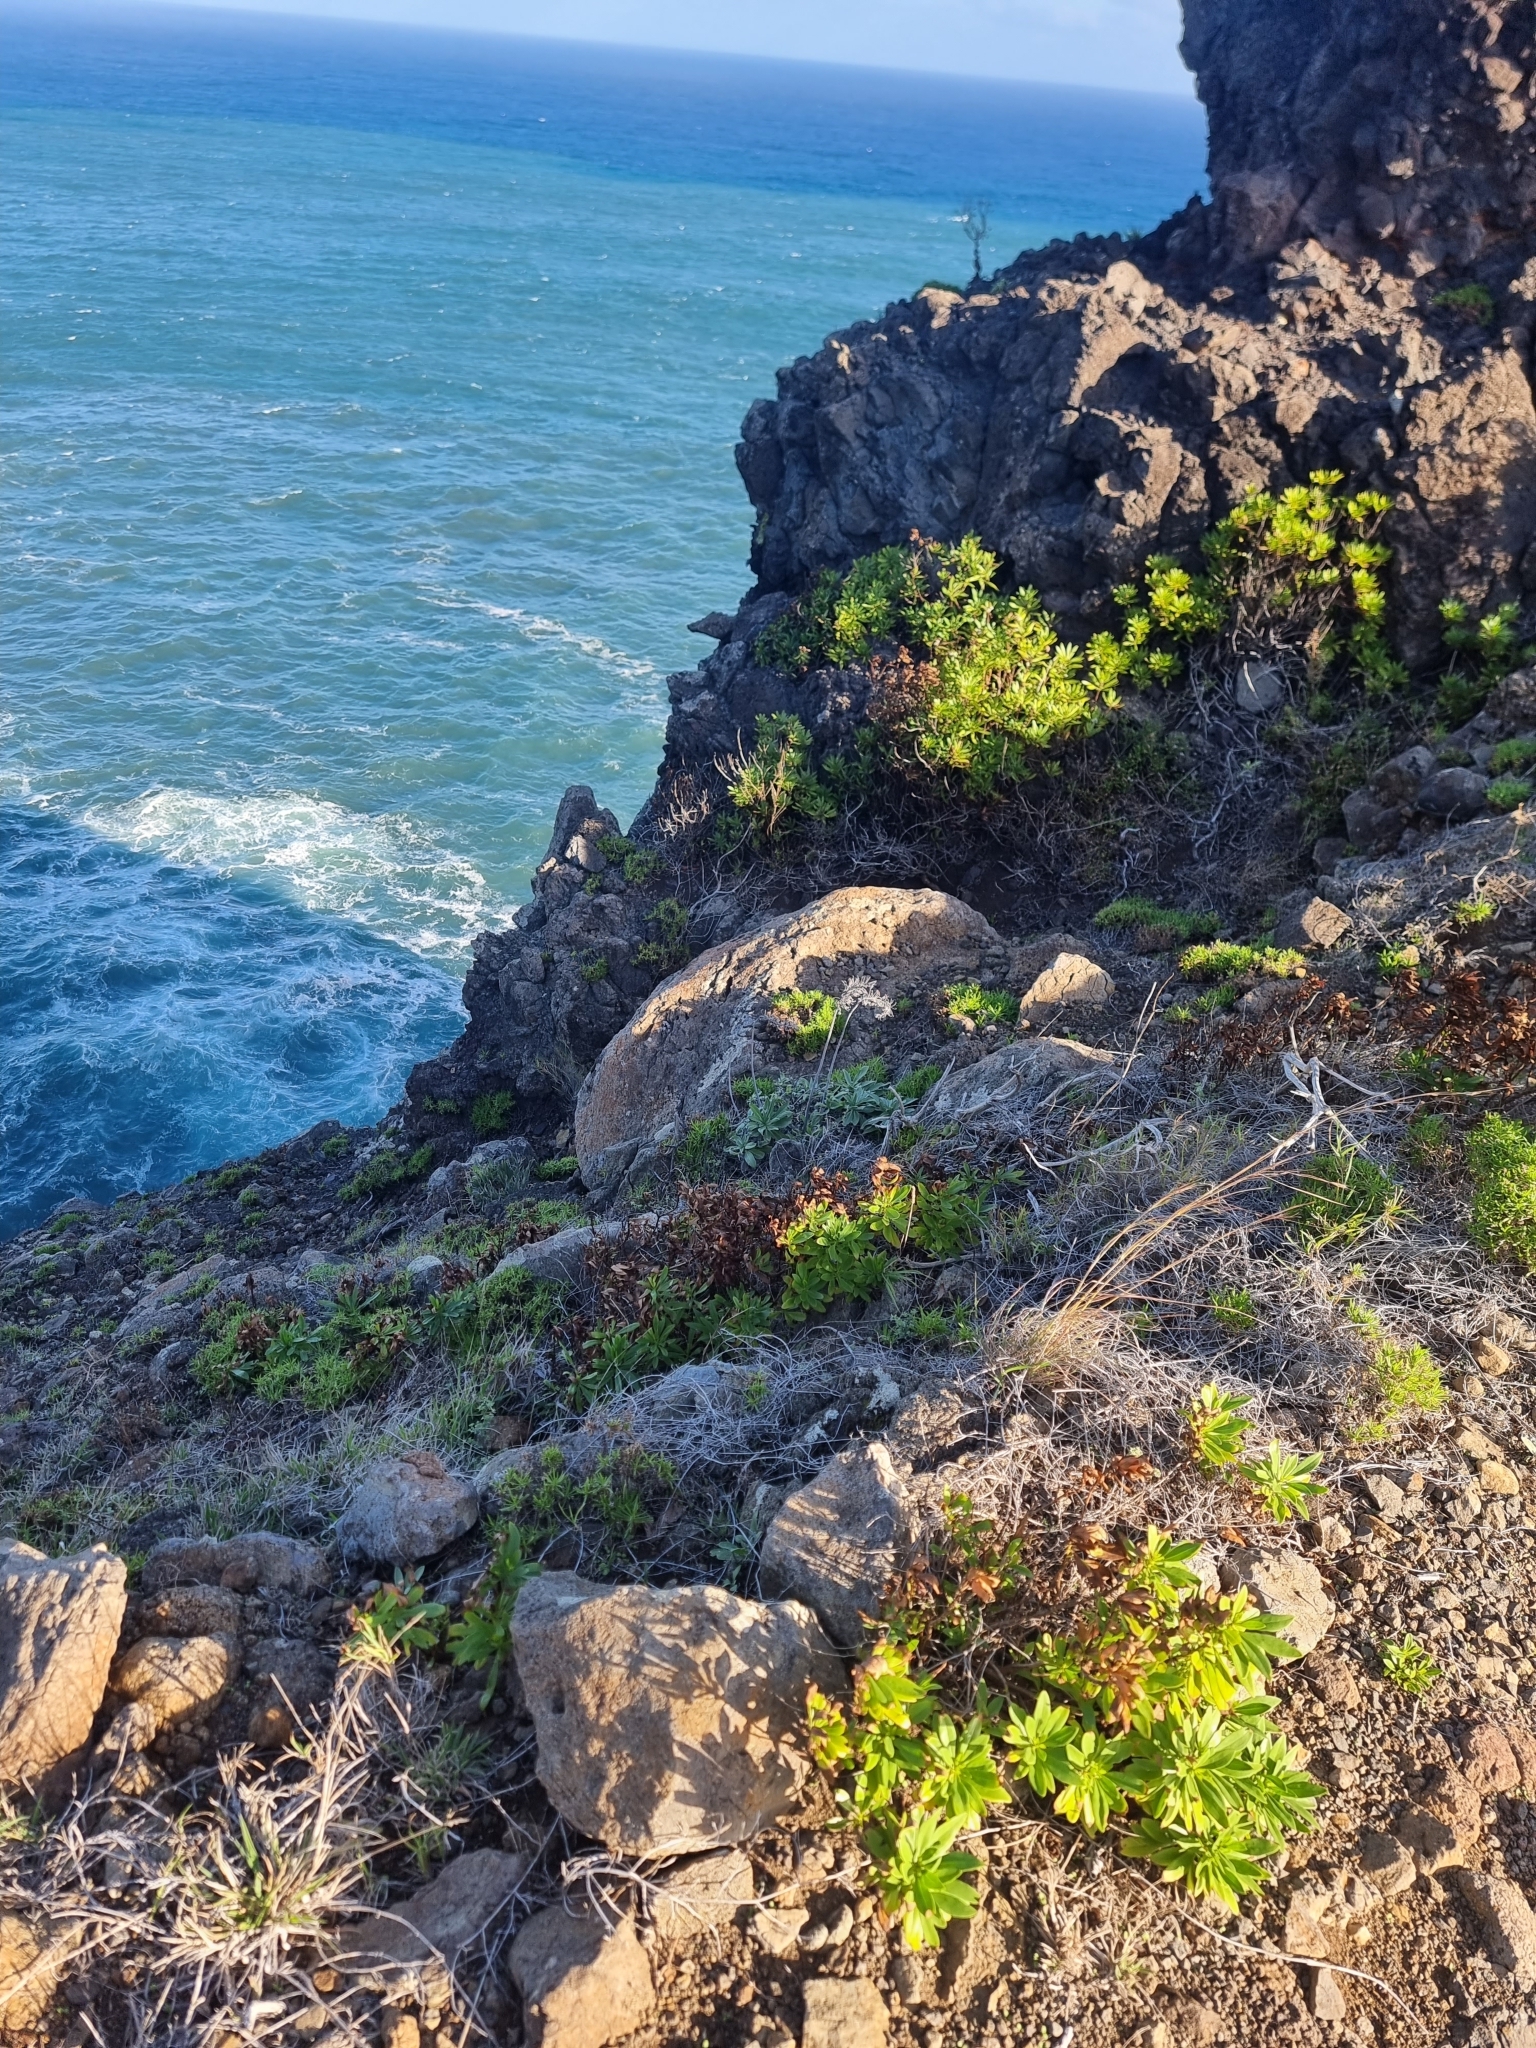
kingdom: Plantae
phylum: Tracheophyta
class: Magnoliopsida
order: Boraginales
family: Boraginaceae
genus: Echium
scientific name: Echium nervosum
